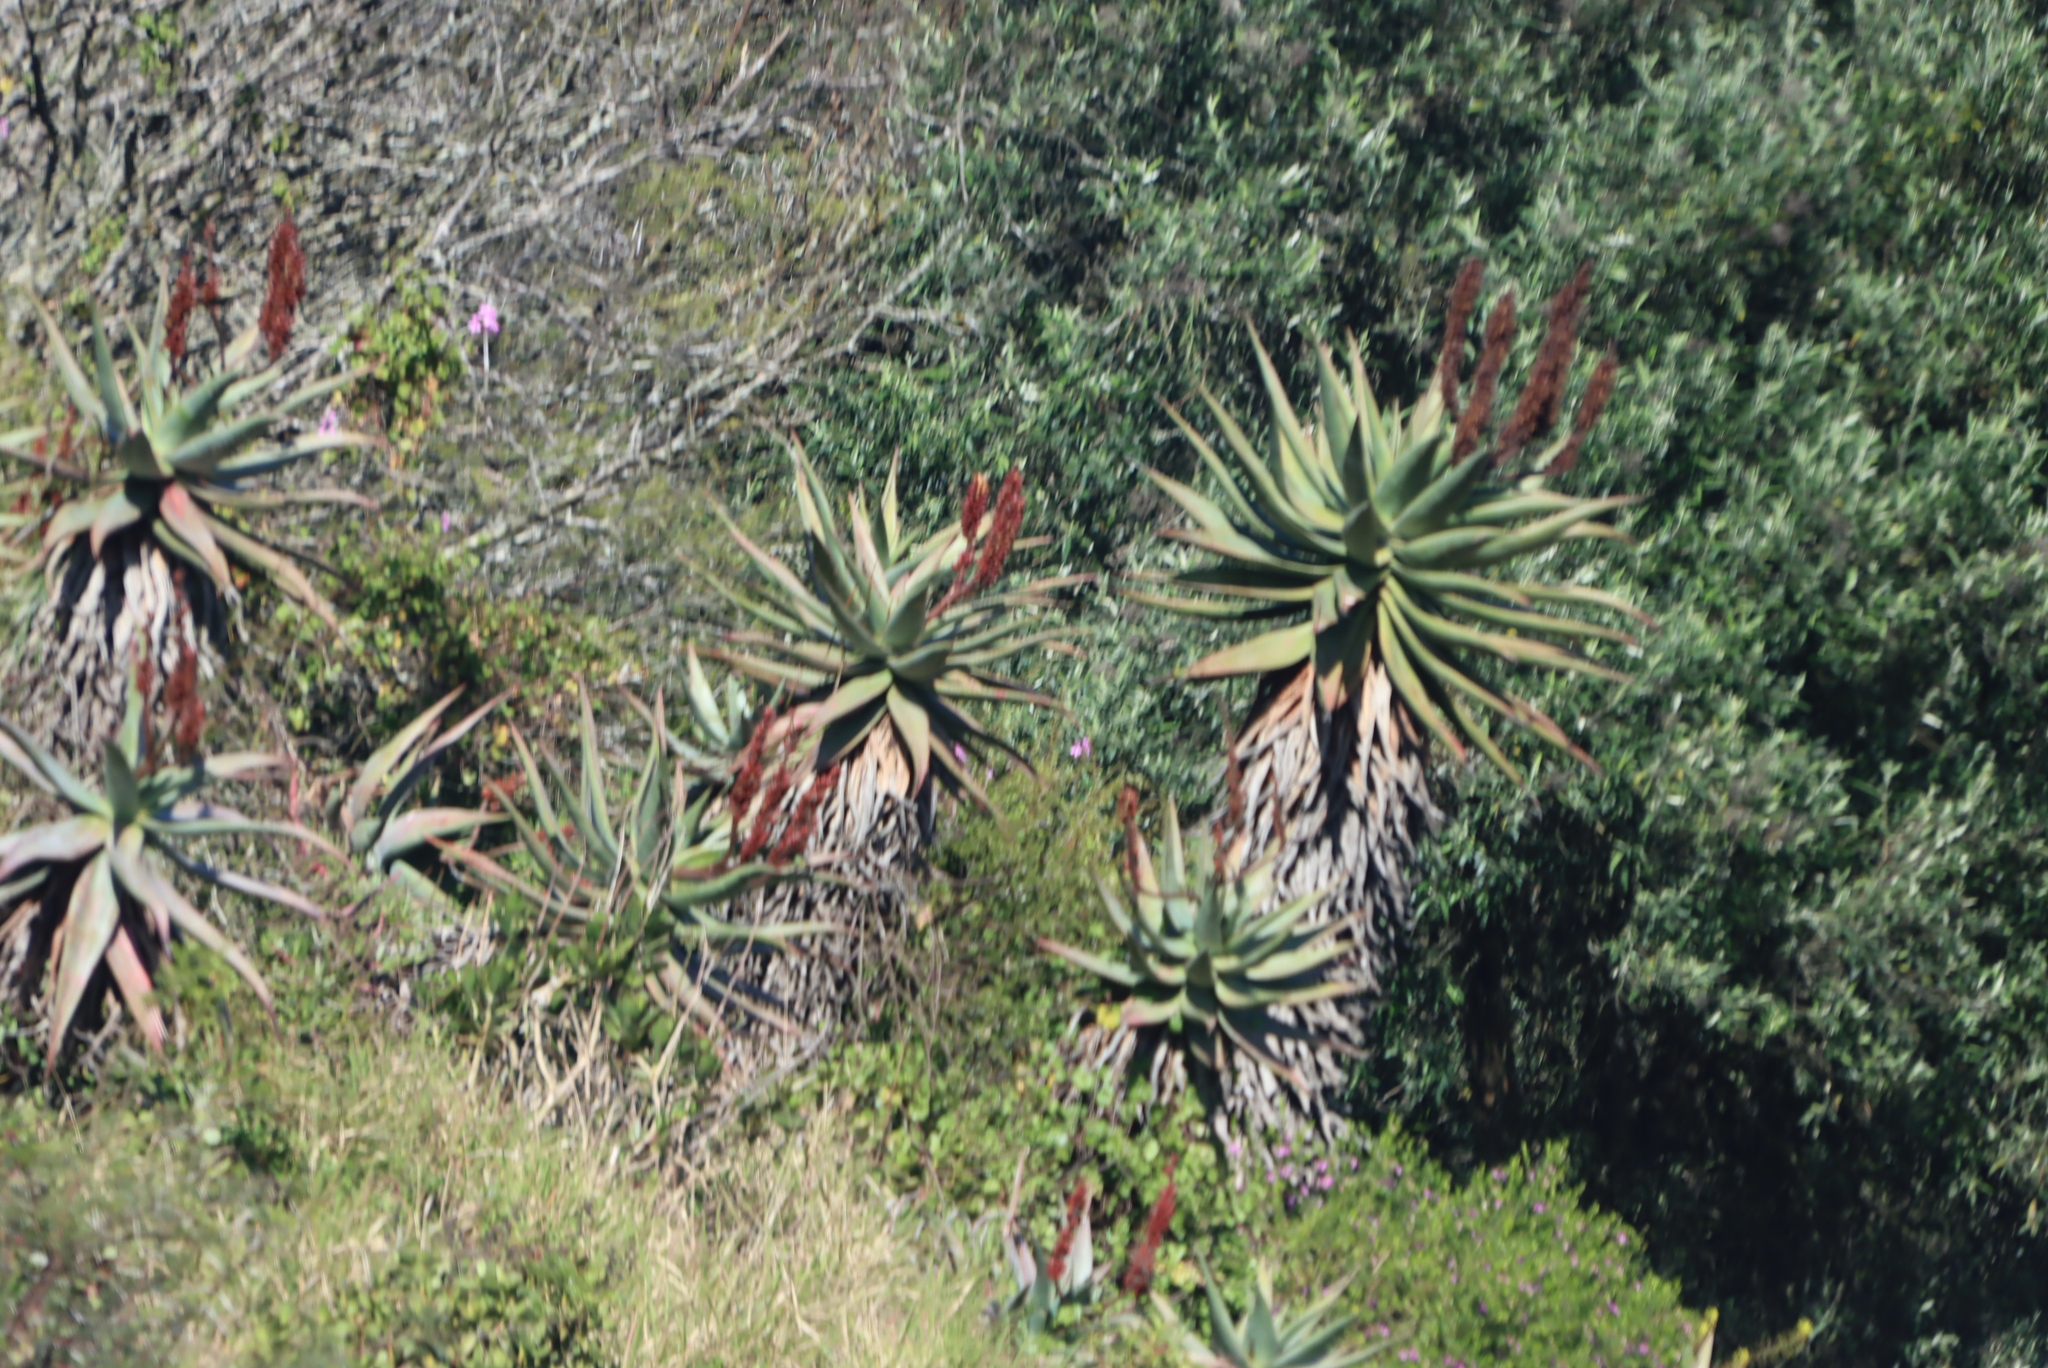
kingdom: Plantae
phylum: Tracheophyta
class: Liliopsida
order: Asparagales
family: Asphodelaceae
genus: Aloe
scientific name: Aloe ferox
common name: Bitter aloe
